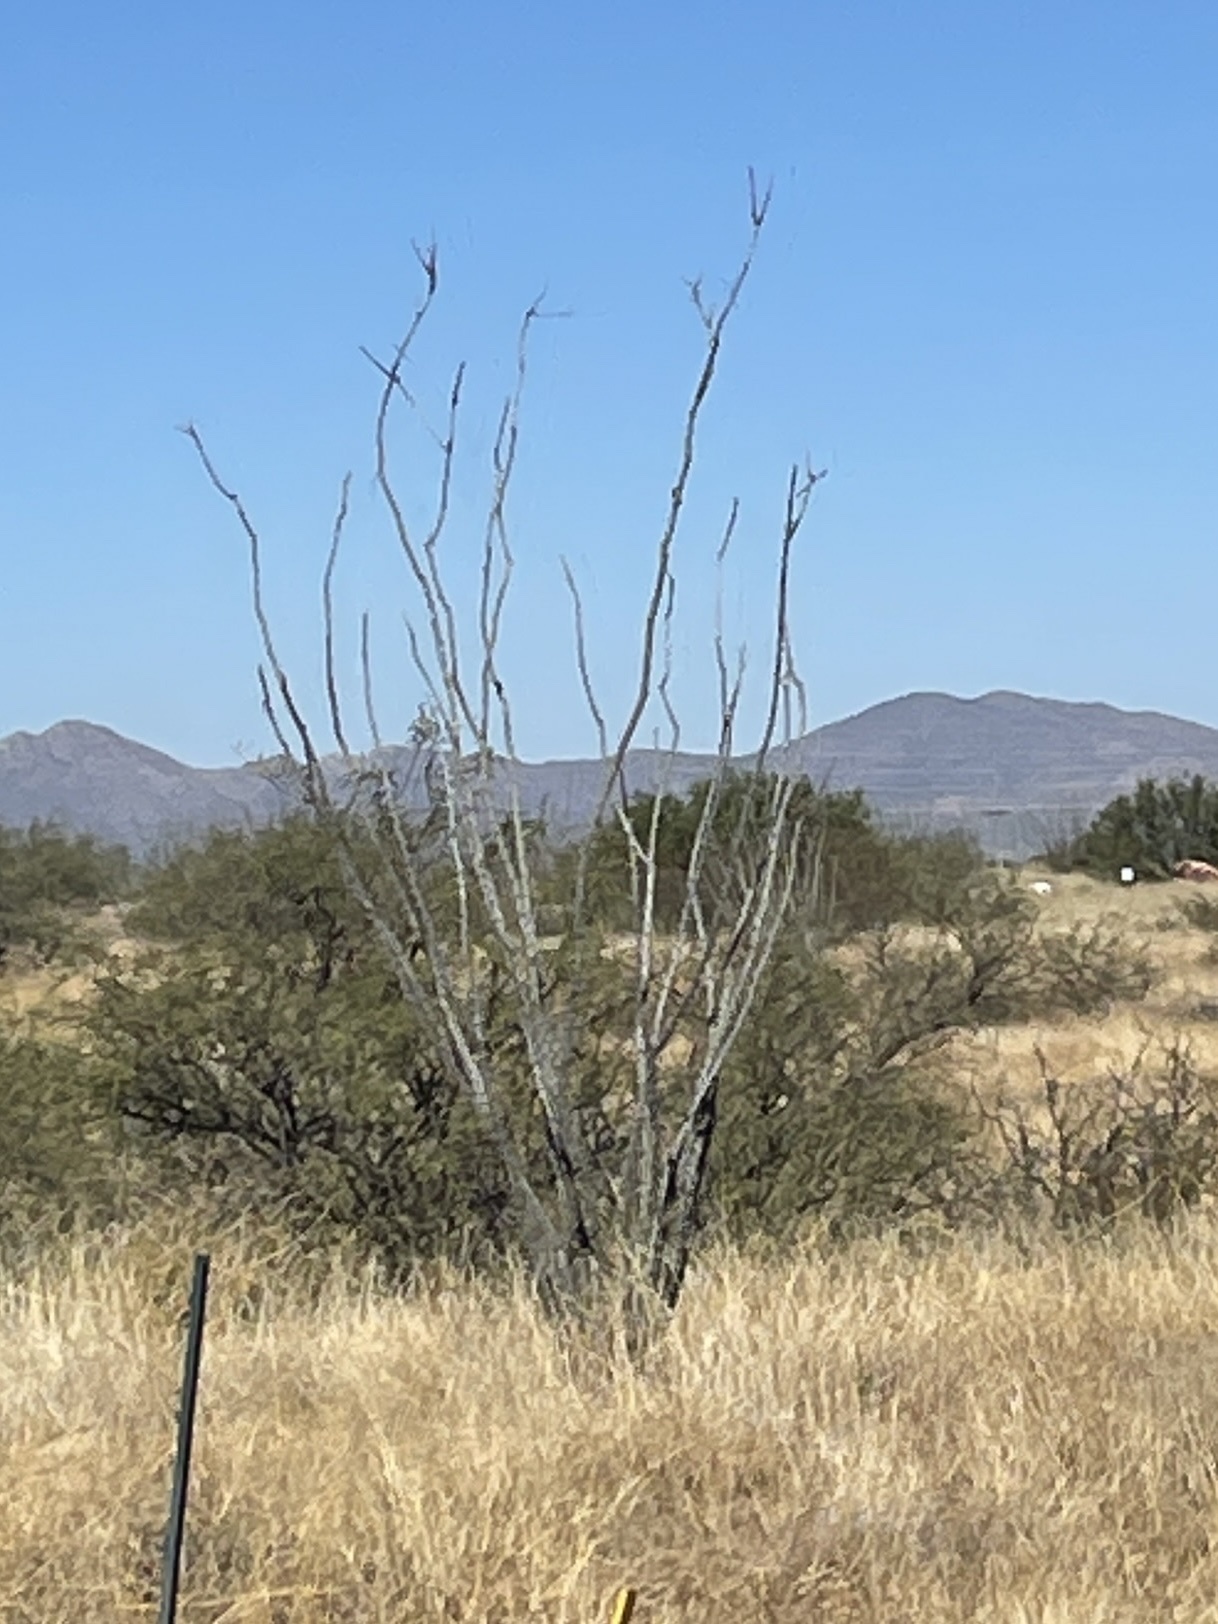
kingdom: Plantae
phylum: Tracheophyta
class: Magnoliopsida
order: Ericales
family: Fouquieriaceae
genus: Fouquieria
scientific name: Fouquieria splendens
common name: Vine-cactus
